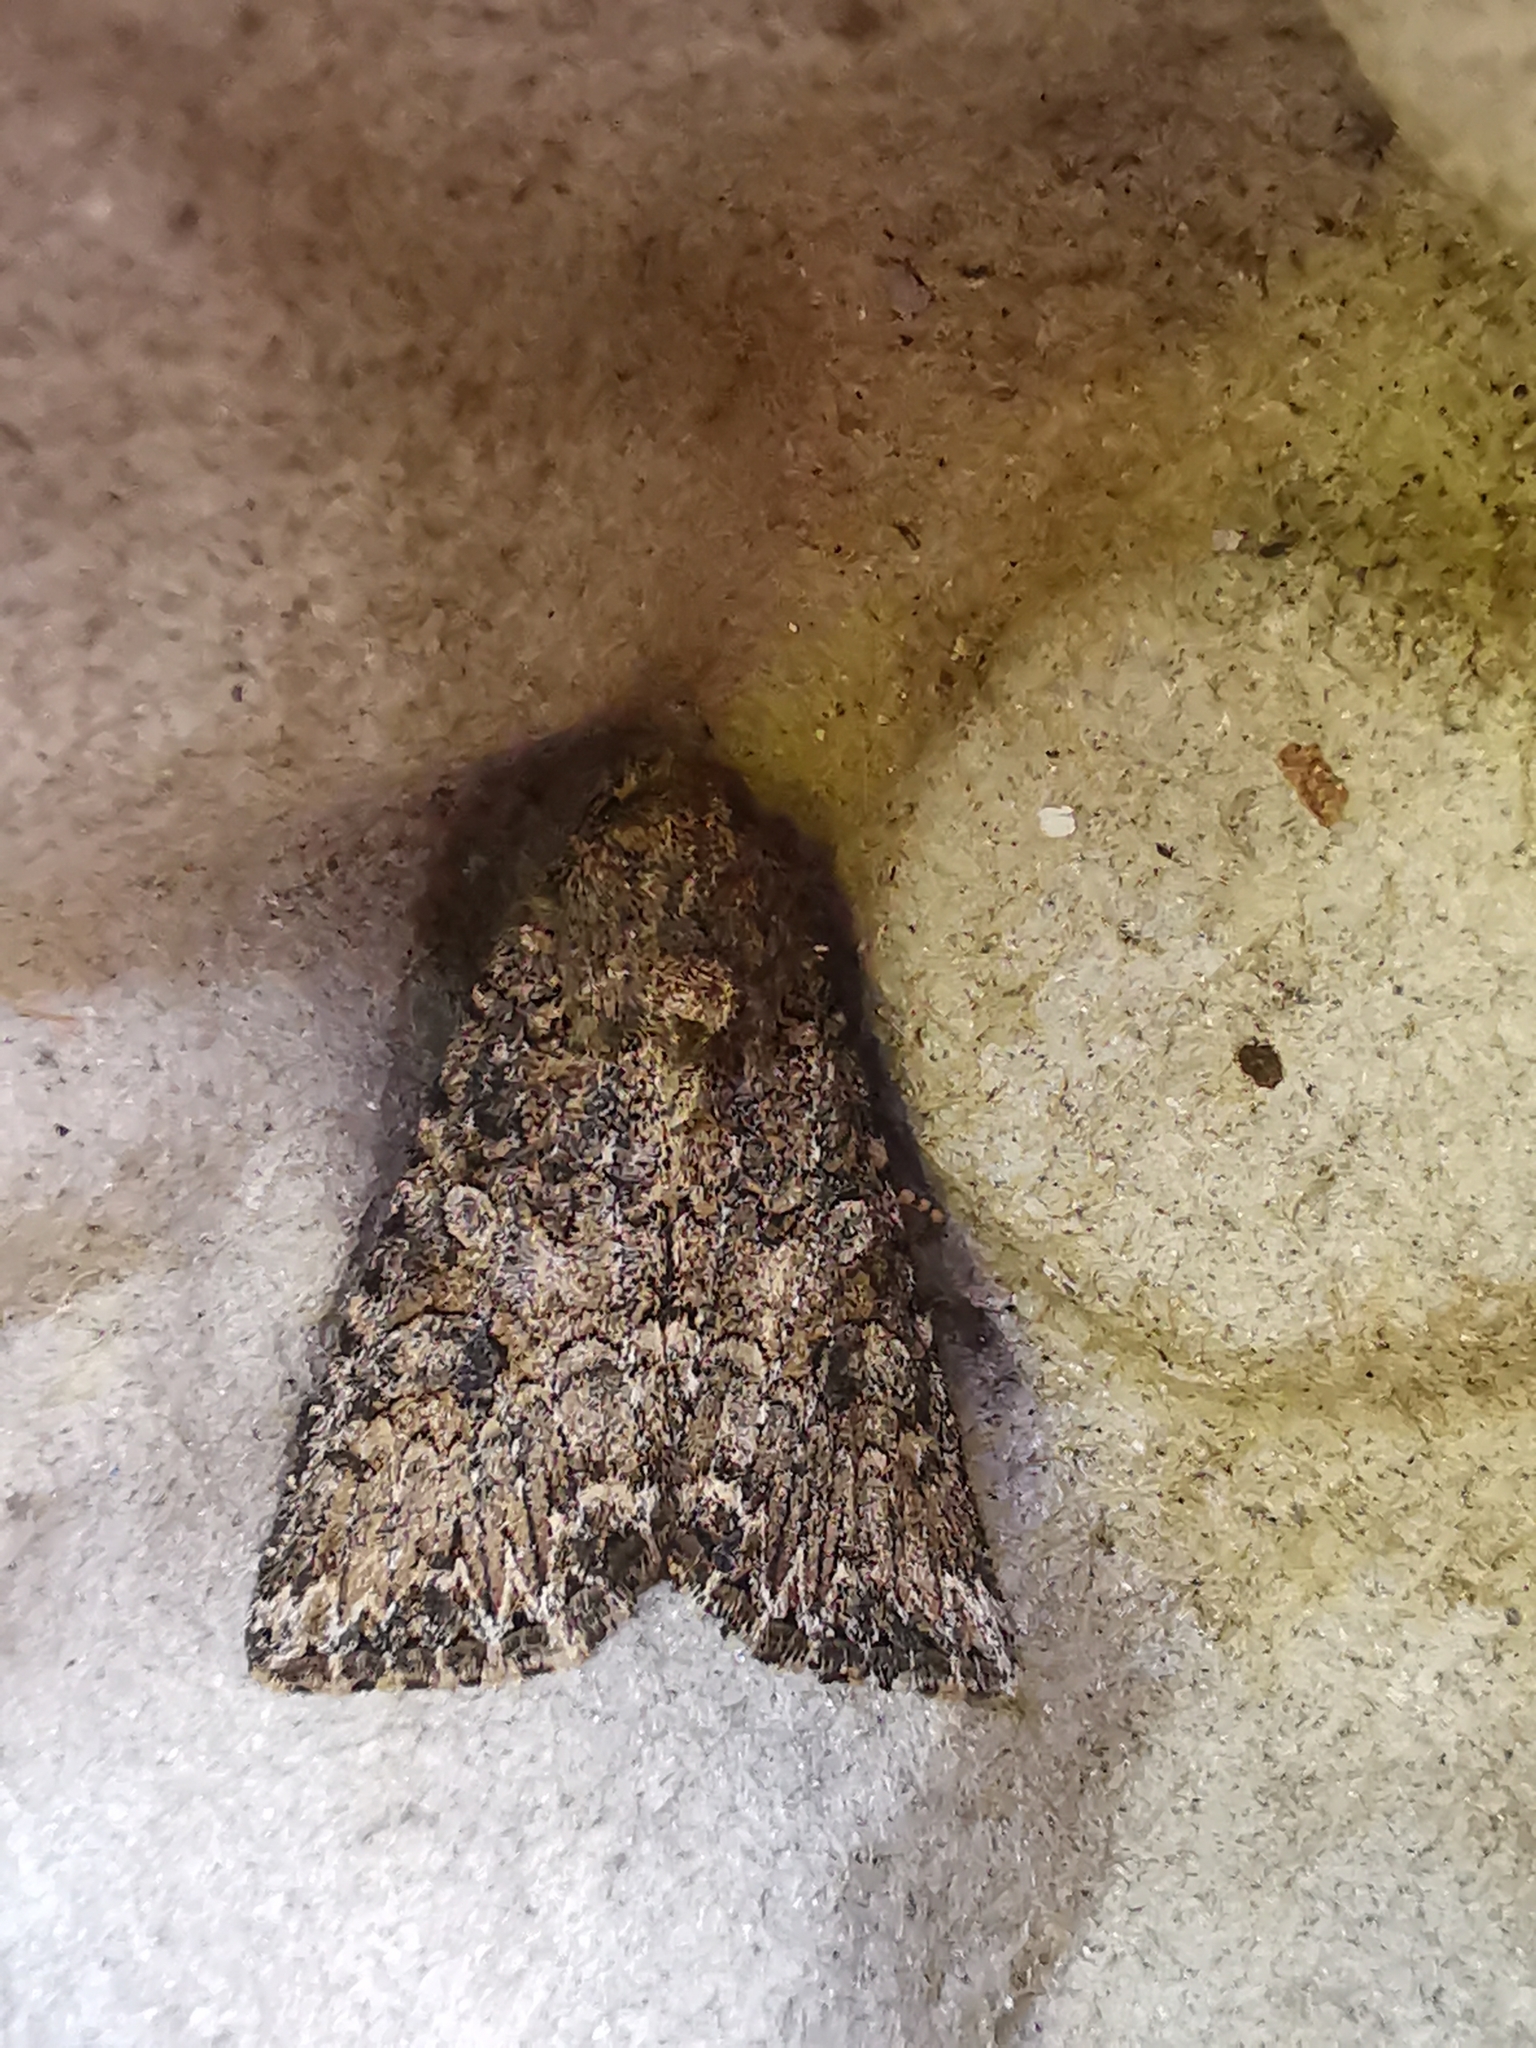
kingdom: Animalia
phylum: Arthropoda
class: Insecta
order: Lepidoptera
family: Noctuidae
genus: Anarta
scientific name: Anarta trifolii
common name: Clover cutworm moth
